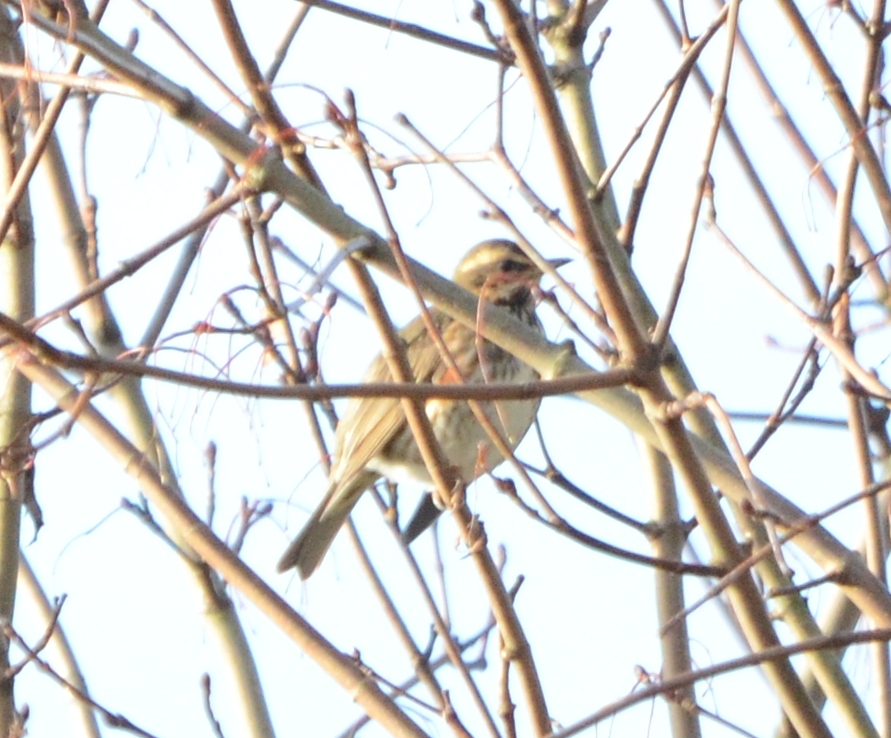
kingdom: Animalia
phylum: Chordata
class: Aves
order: Passeriformes
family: Turdidae
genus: Turdus
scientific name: Turdus iliacus
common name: Redwing
